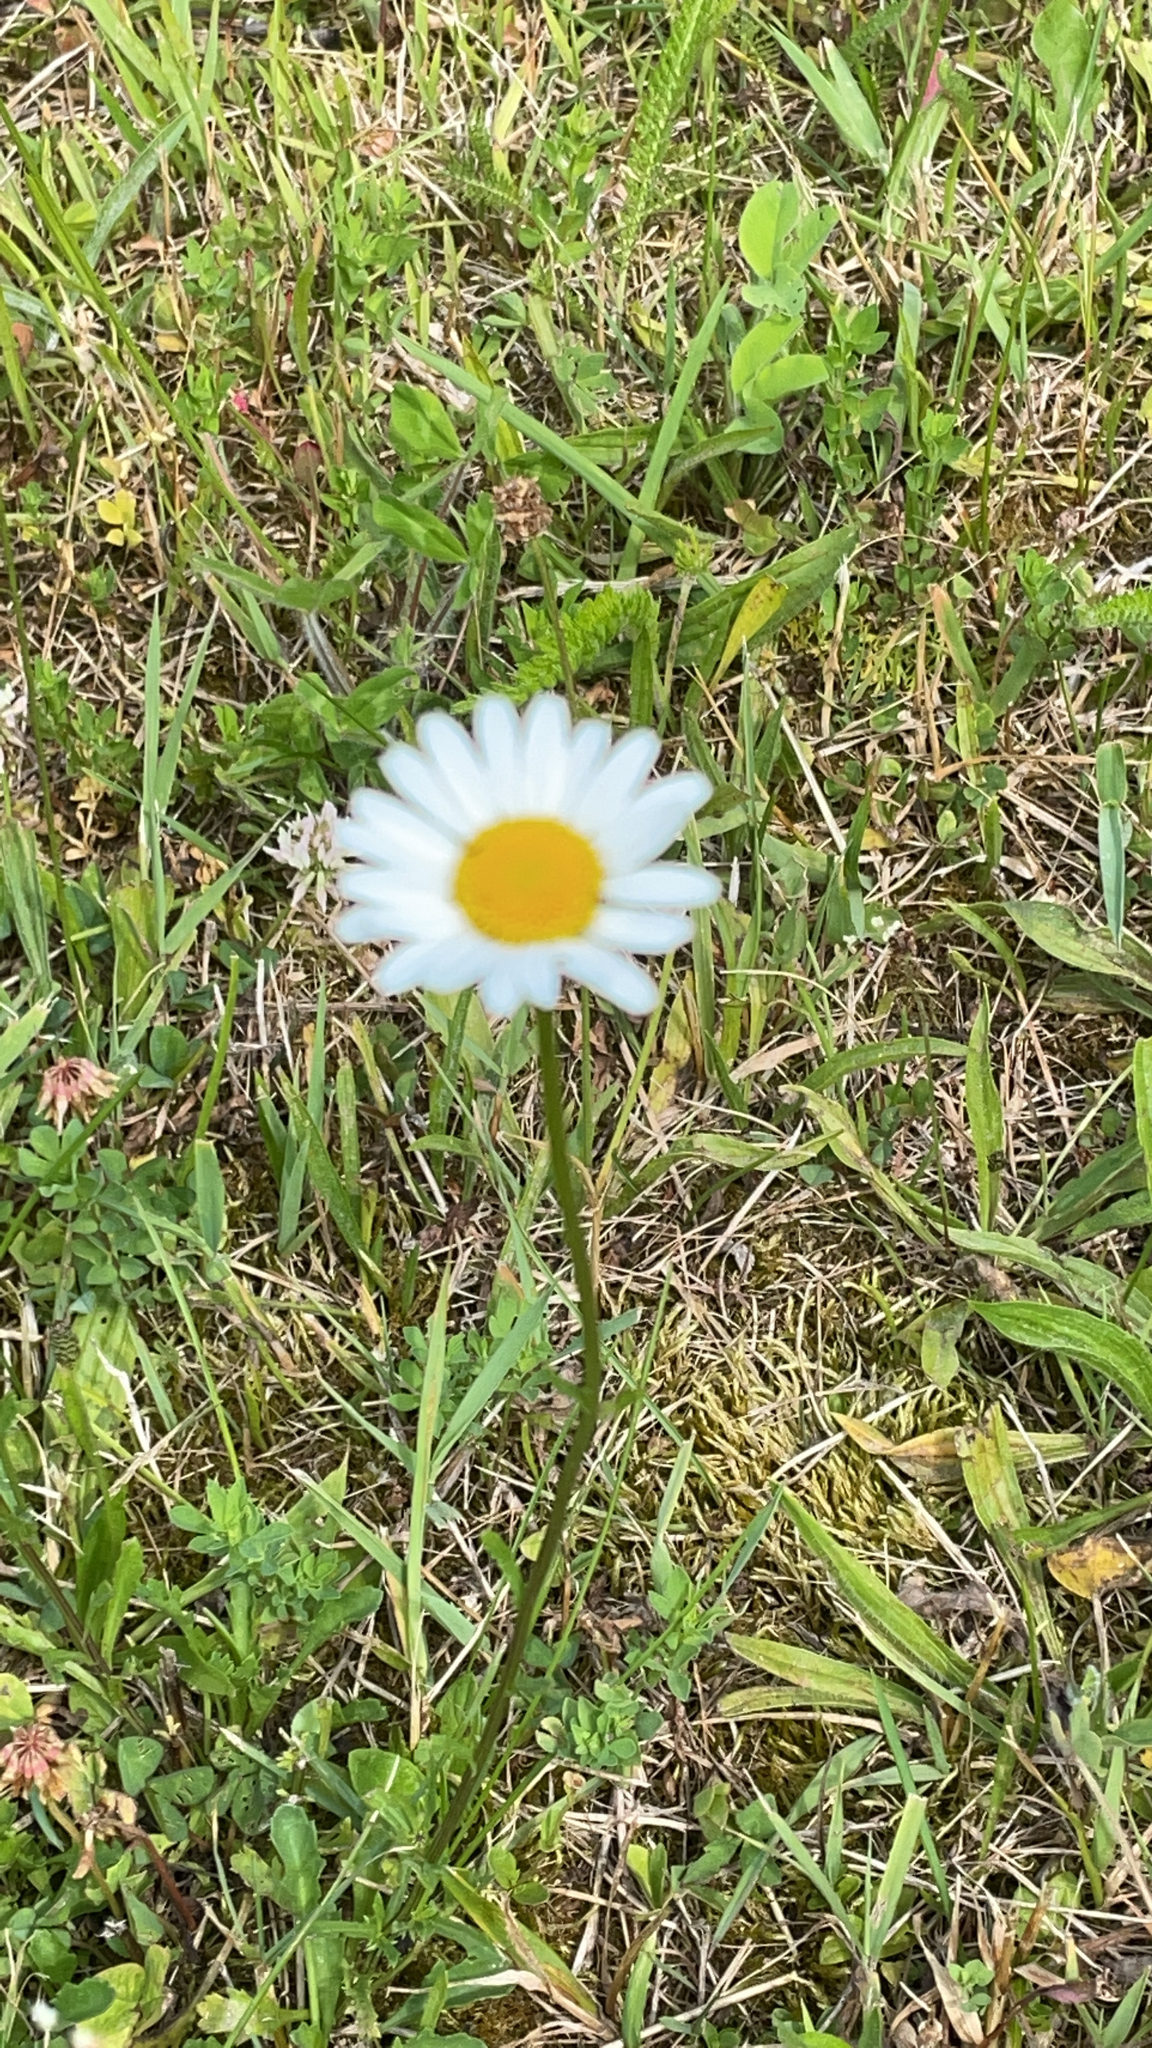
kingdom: Plantae
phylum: Tracheophyta
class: Magnoliopsida
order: Asterales
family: Asteraceae
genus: Leucanthemum
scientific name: Leucanthemum vulgare
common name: Oxeye daisy
